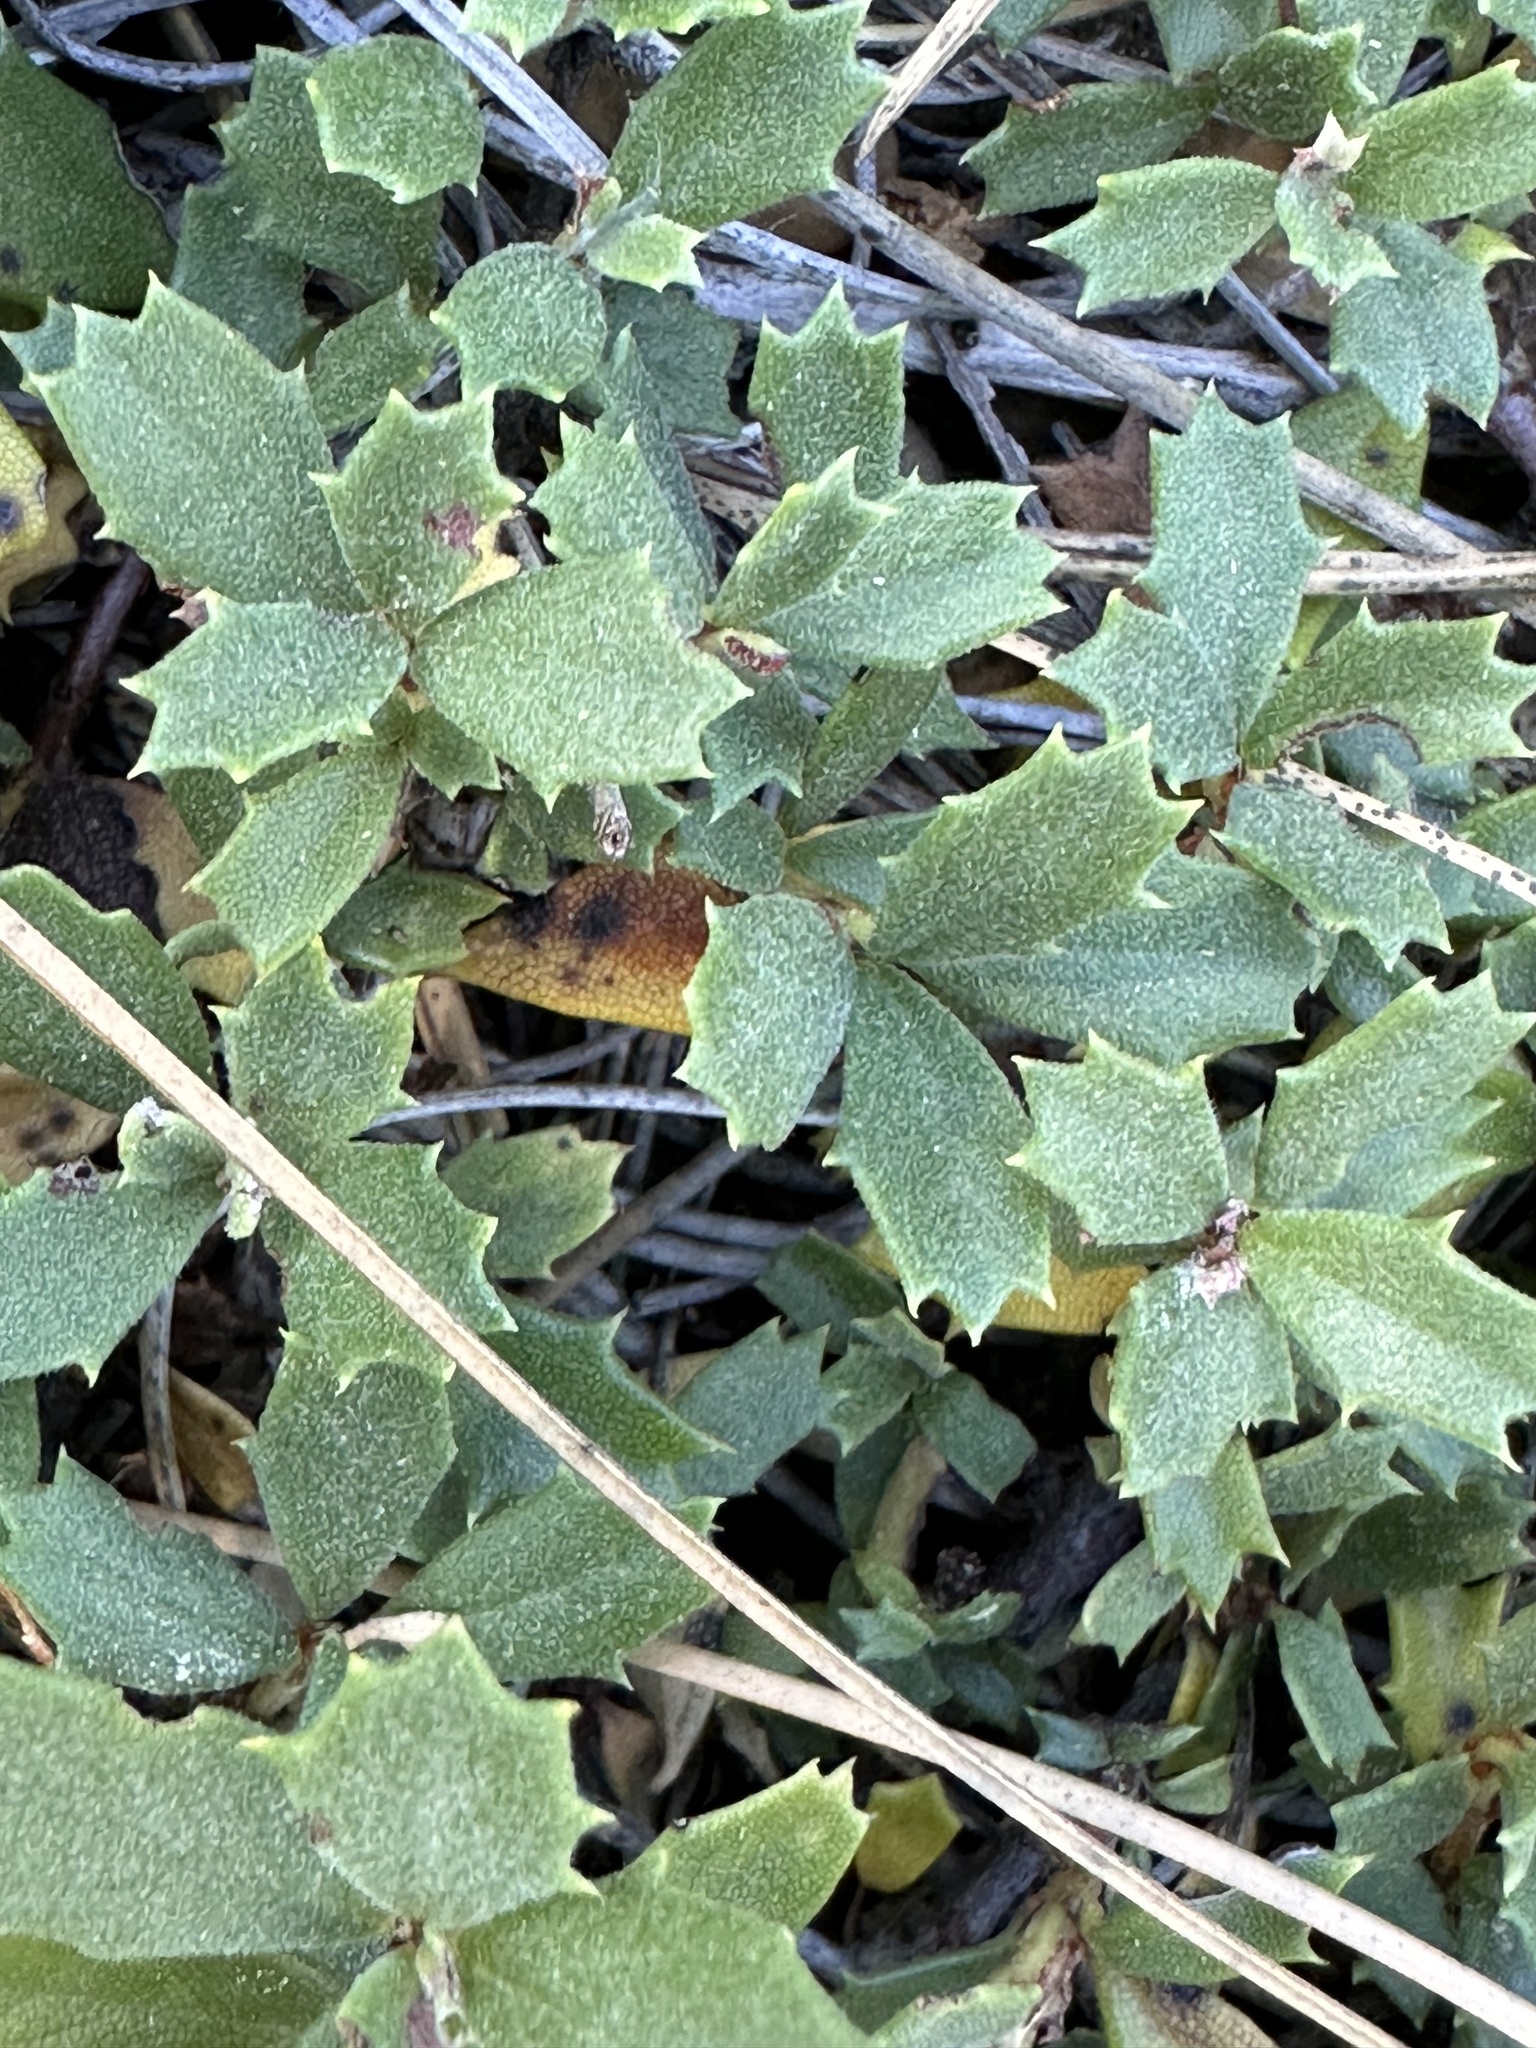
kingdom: Plantae
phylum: Tracheophyta
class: Magnoliopsida
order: Rosales
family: Rhamnaceae
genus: Ceanothus
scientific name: Ceanothus prostratus
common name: Mahala-mat
